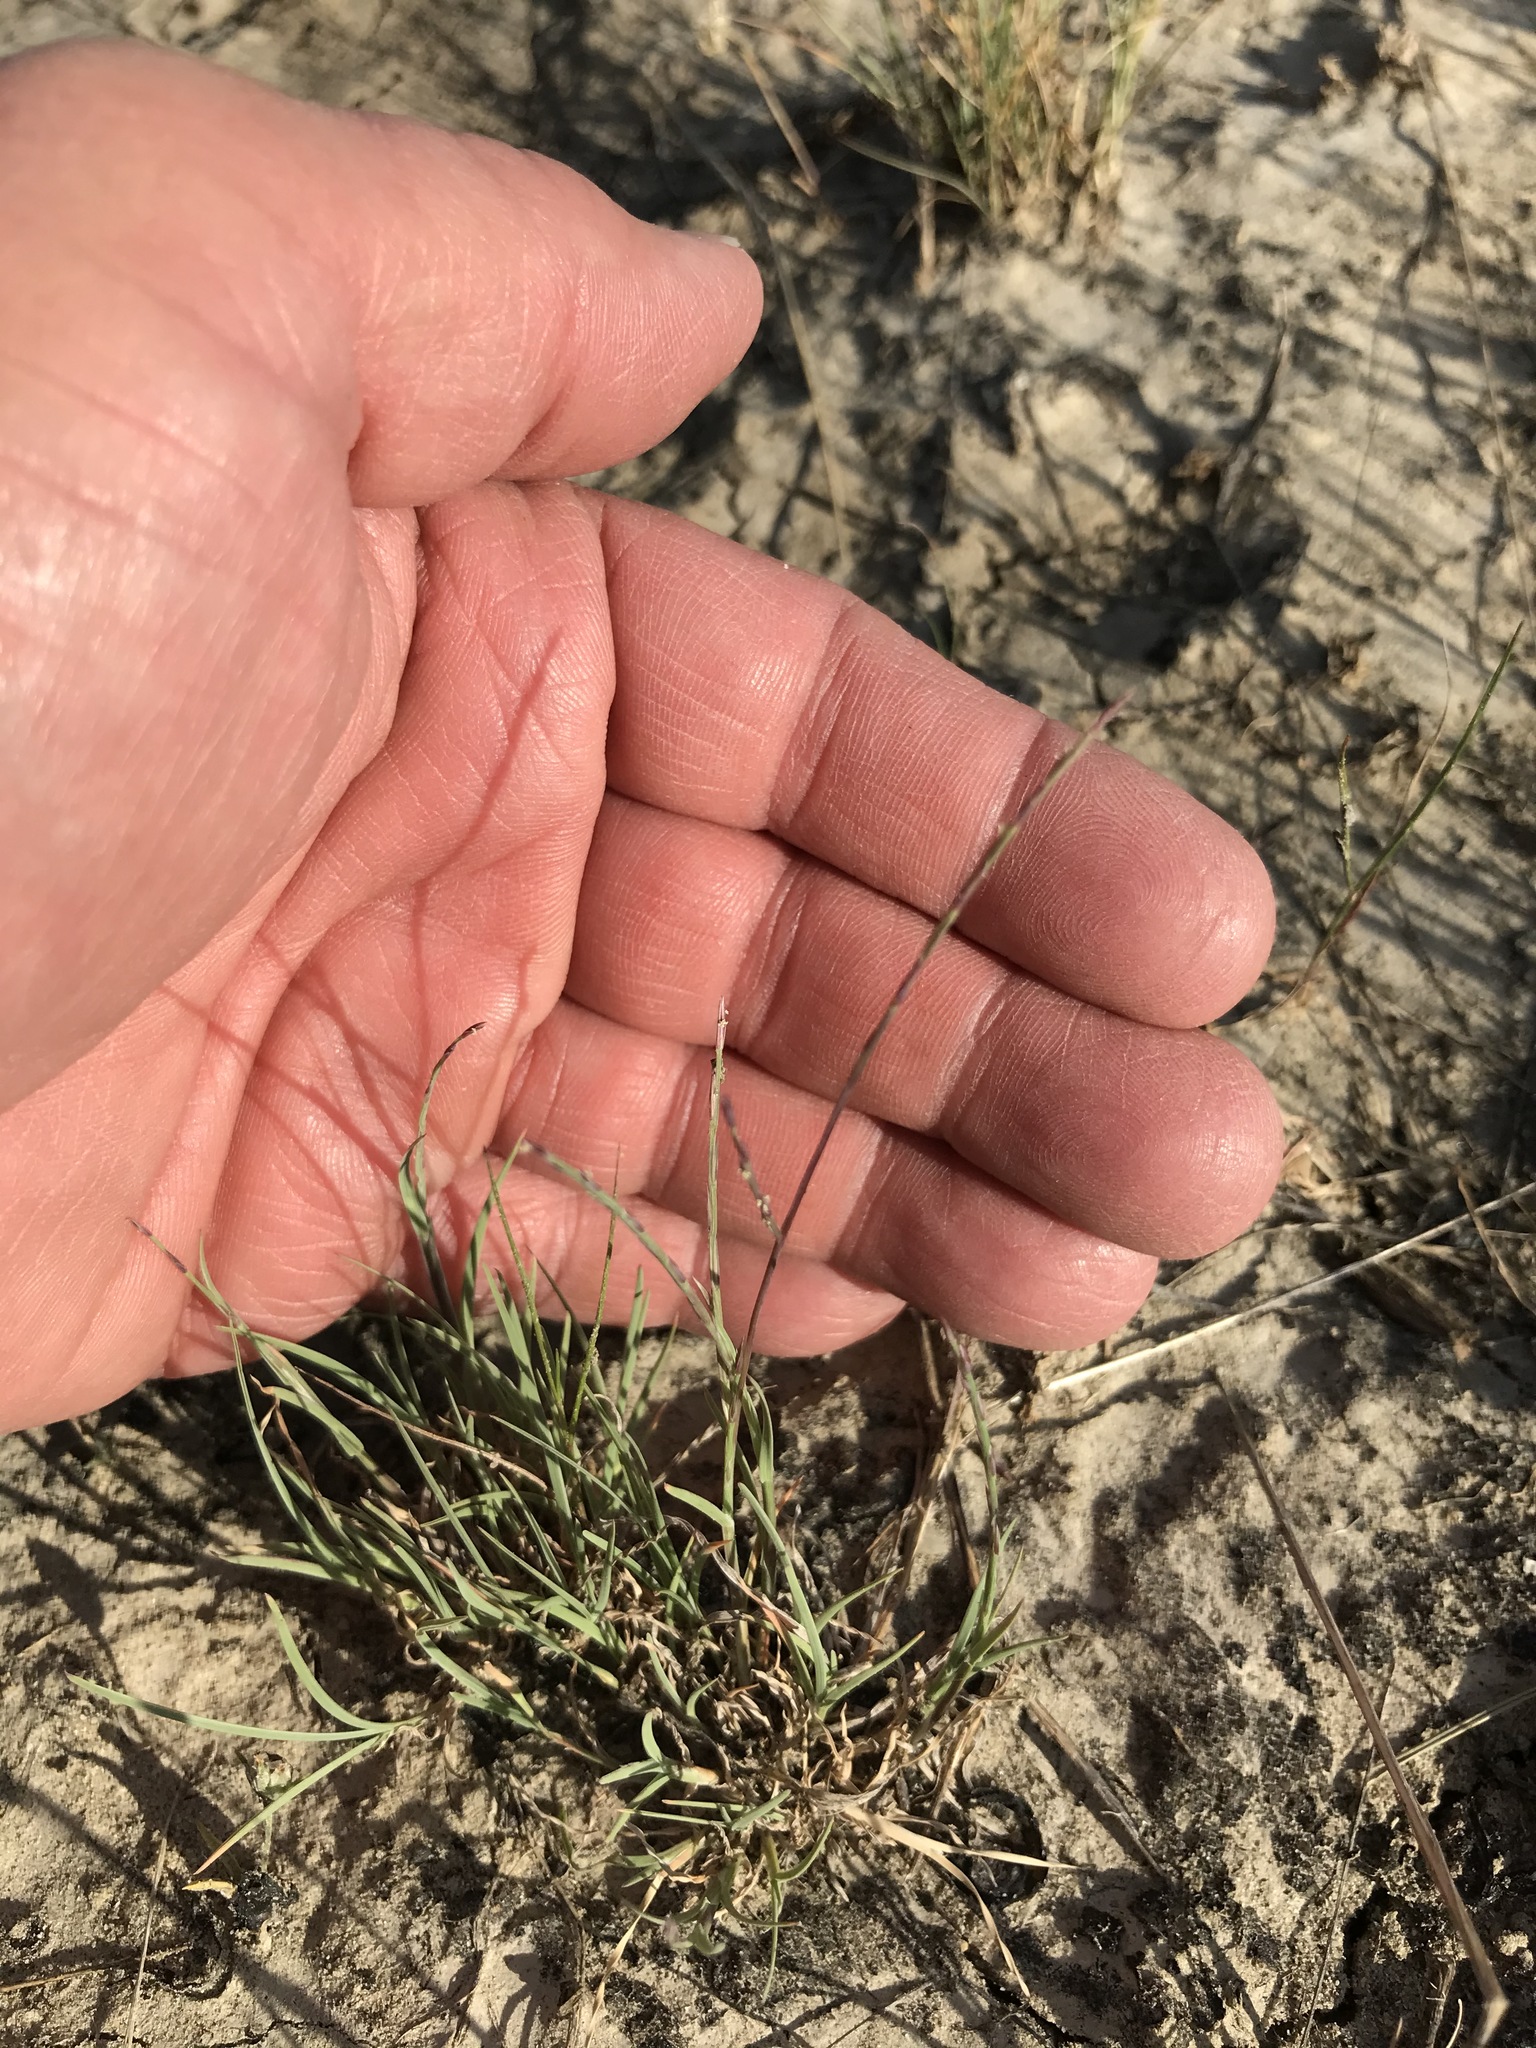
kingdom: Plantae
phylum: Tracheophyta
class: Liliopsida
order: Poales
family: Poaceae
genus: Muhlenbergia
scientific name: Muhlenbergia paniculata
